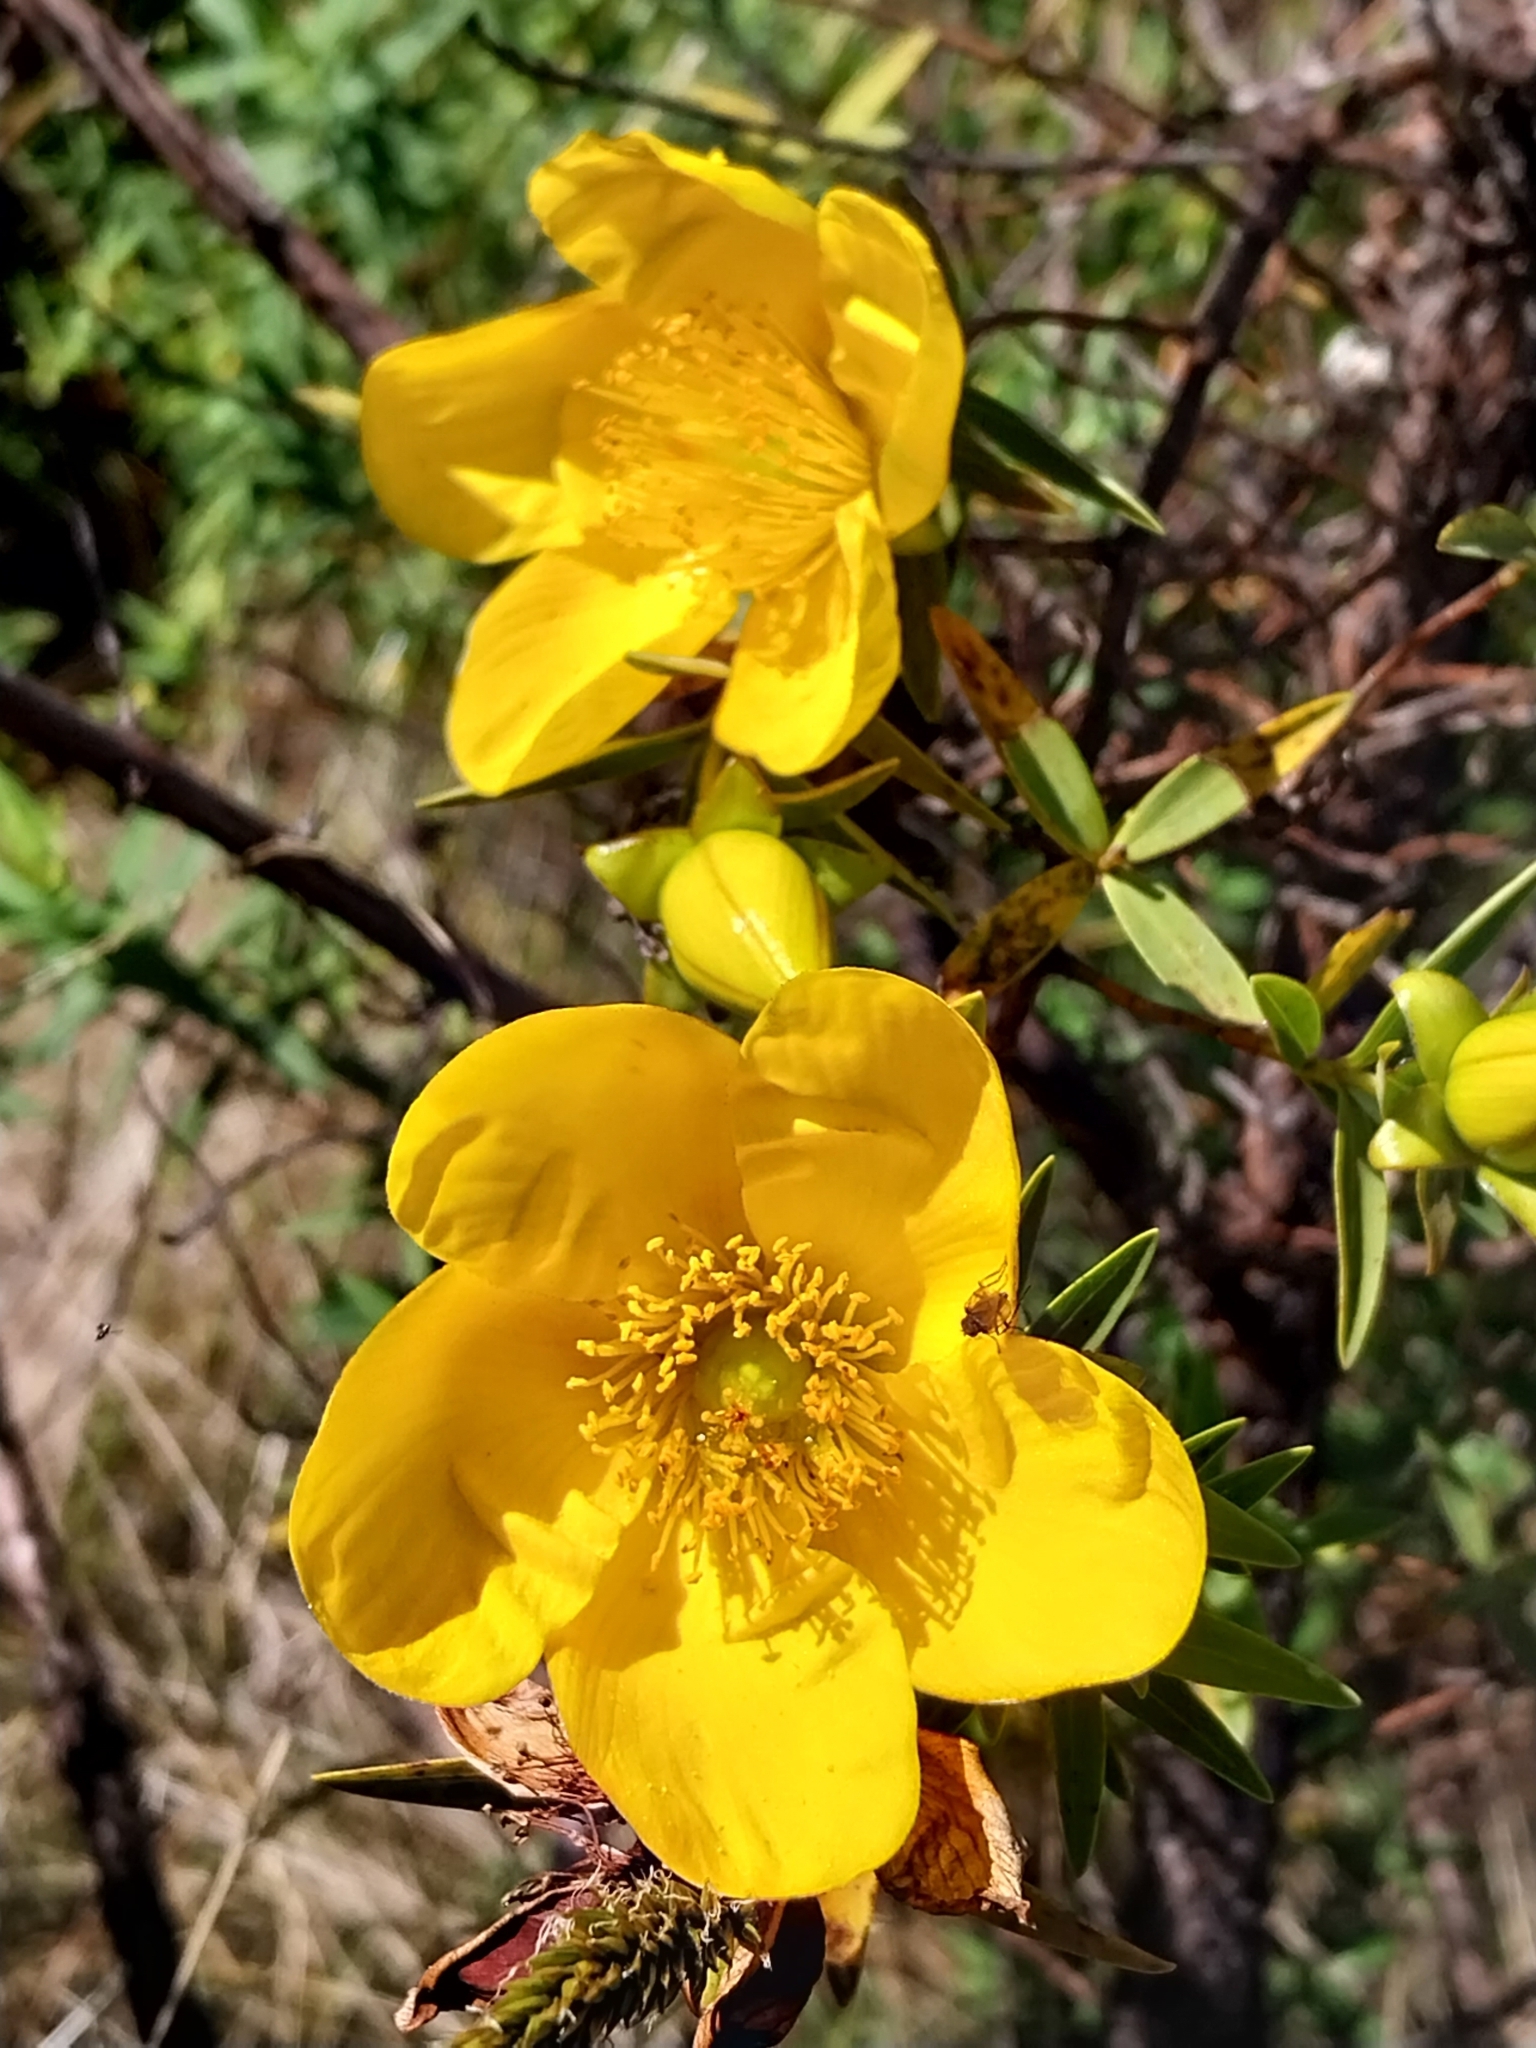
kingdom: Plantae
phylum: Tracheophyta
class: Magnoliopsida
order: Malpighiales
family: Hypericaceae
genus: Hypericum
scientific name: Hypericum lanceolatum
